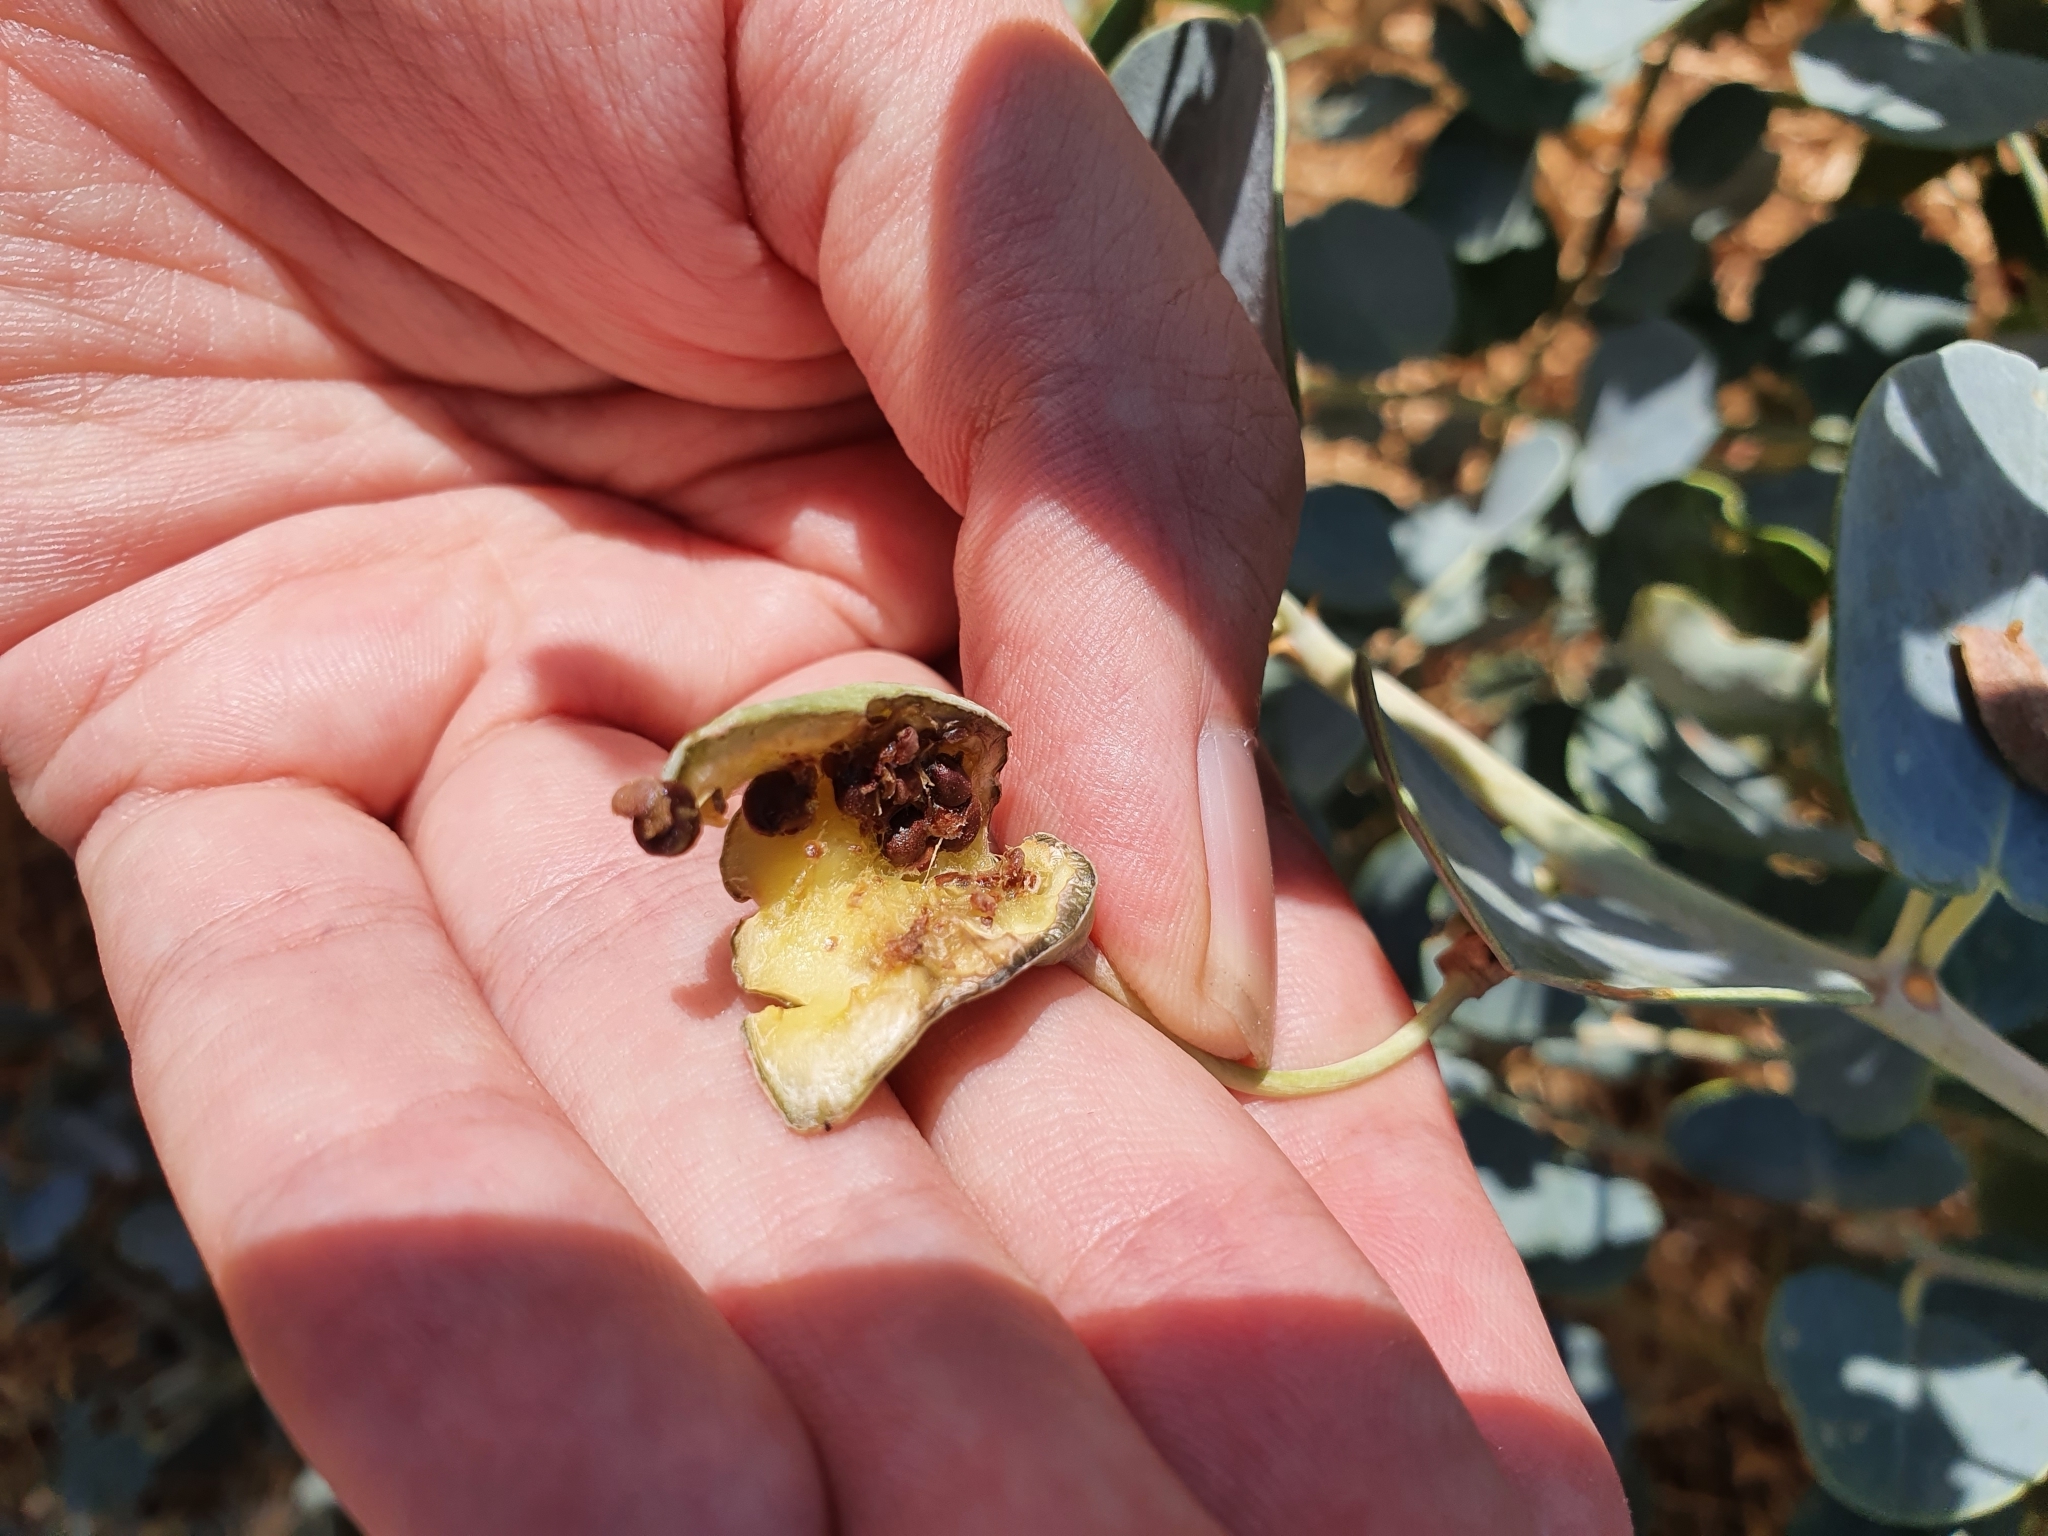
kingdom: Plantae
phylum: Tracheophyta
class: Magnoliopsida
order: Brassicales
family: Capparaceae
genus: Capparis
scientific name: Capparis spinosa
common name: Caper
